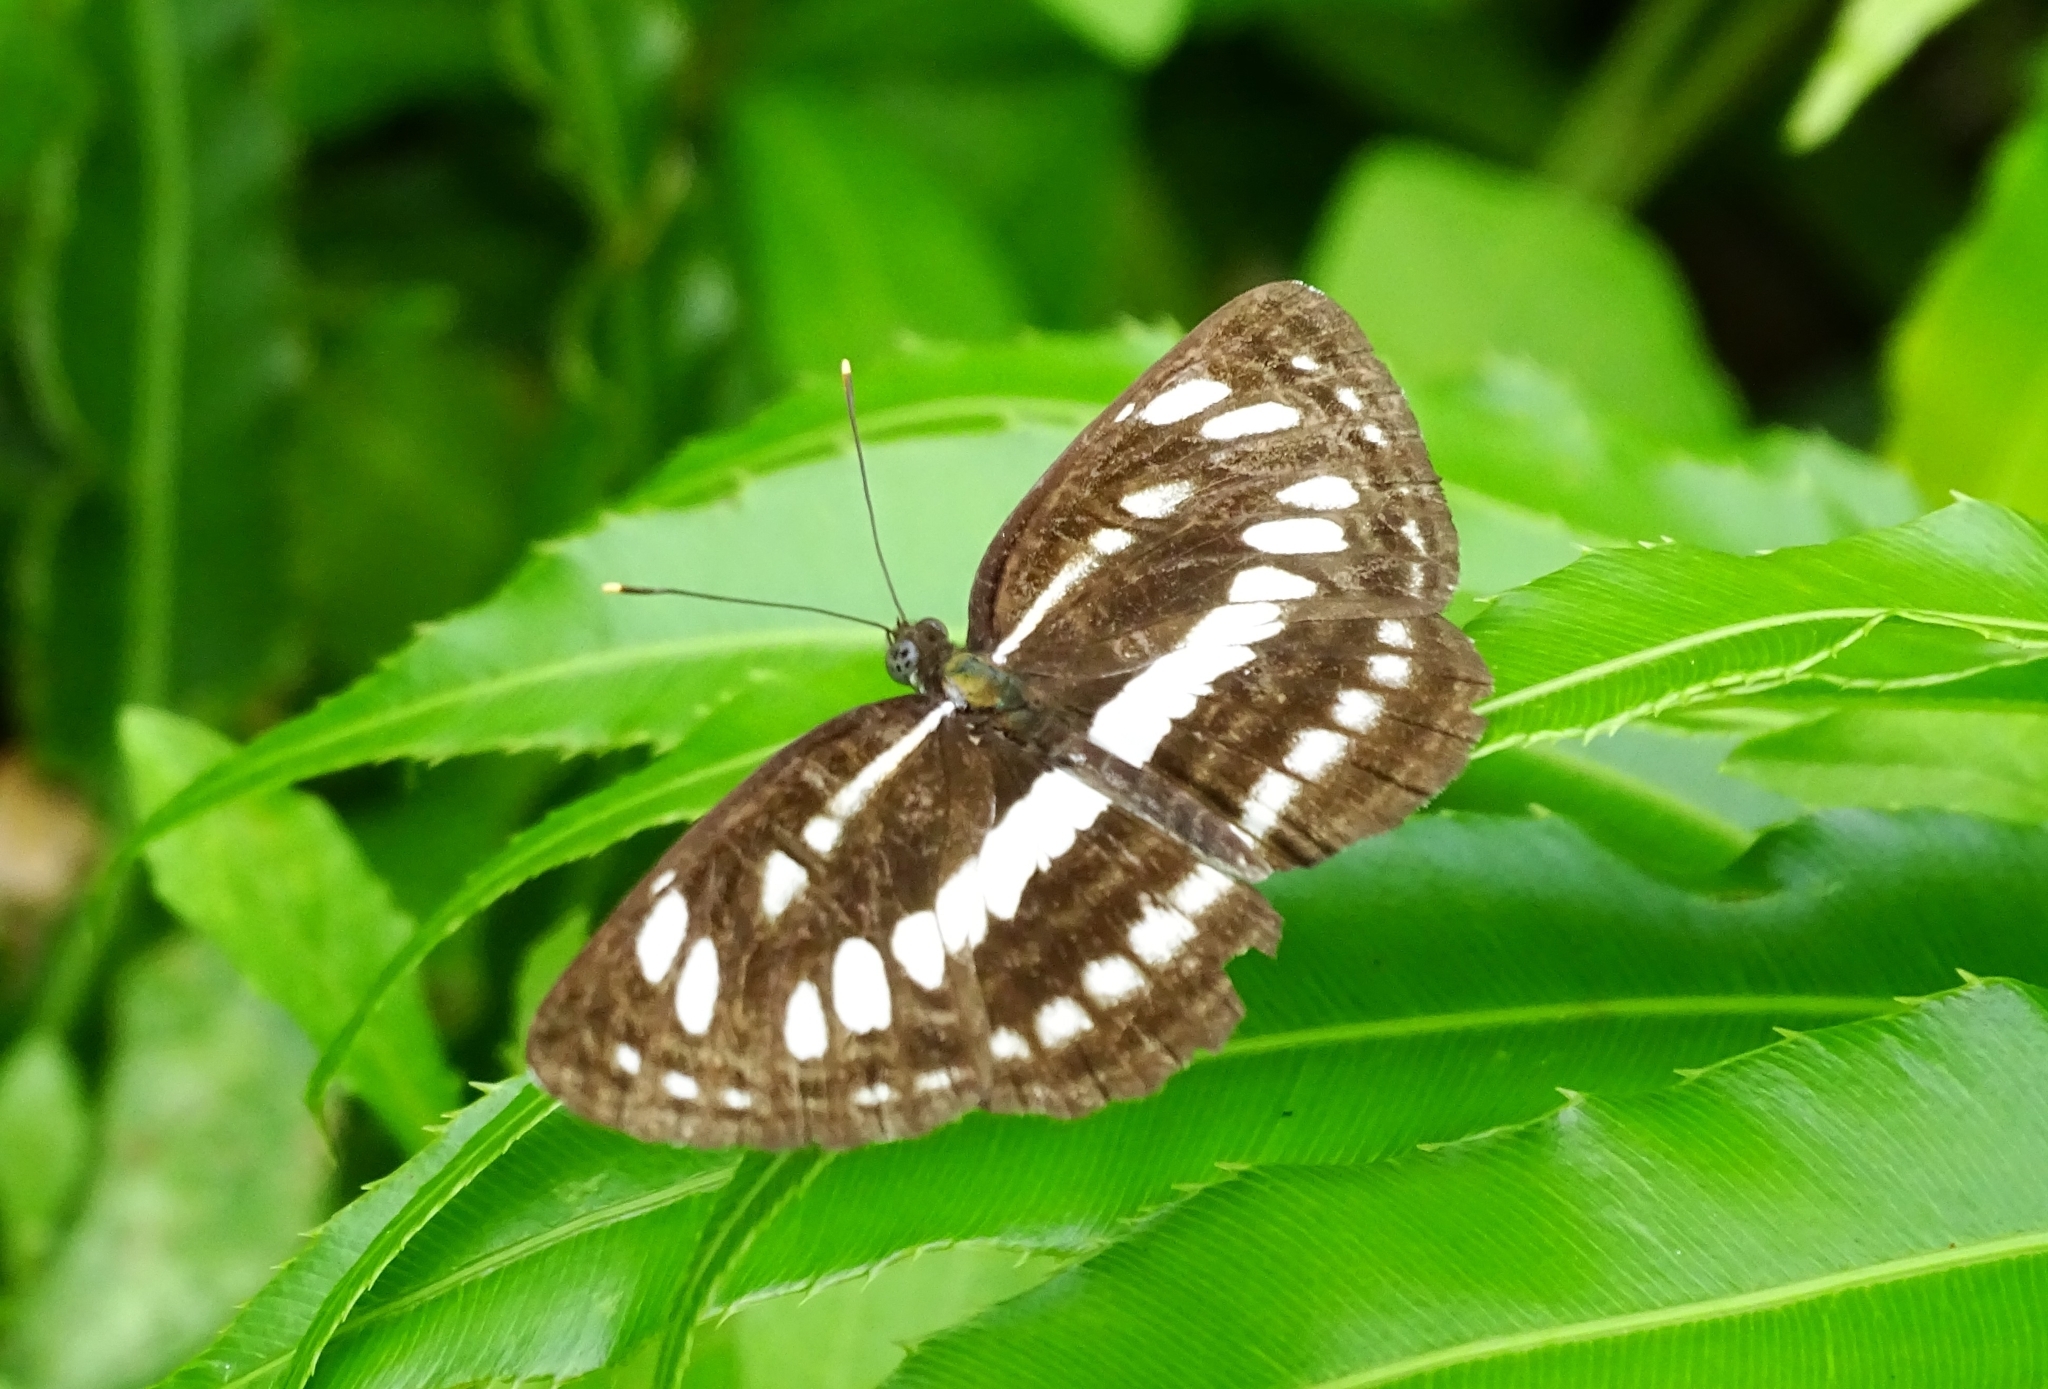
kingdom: Animalia
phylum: Arthropoda
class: Insecta
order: Lepidoptera
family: Nymphalidae
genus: Neptis
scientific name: Neptis hylas
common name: Common sailer
